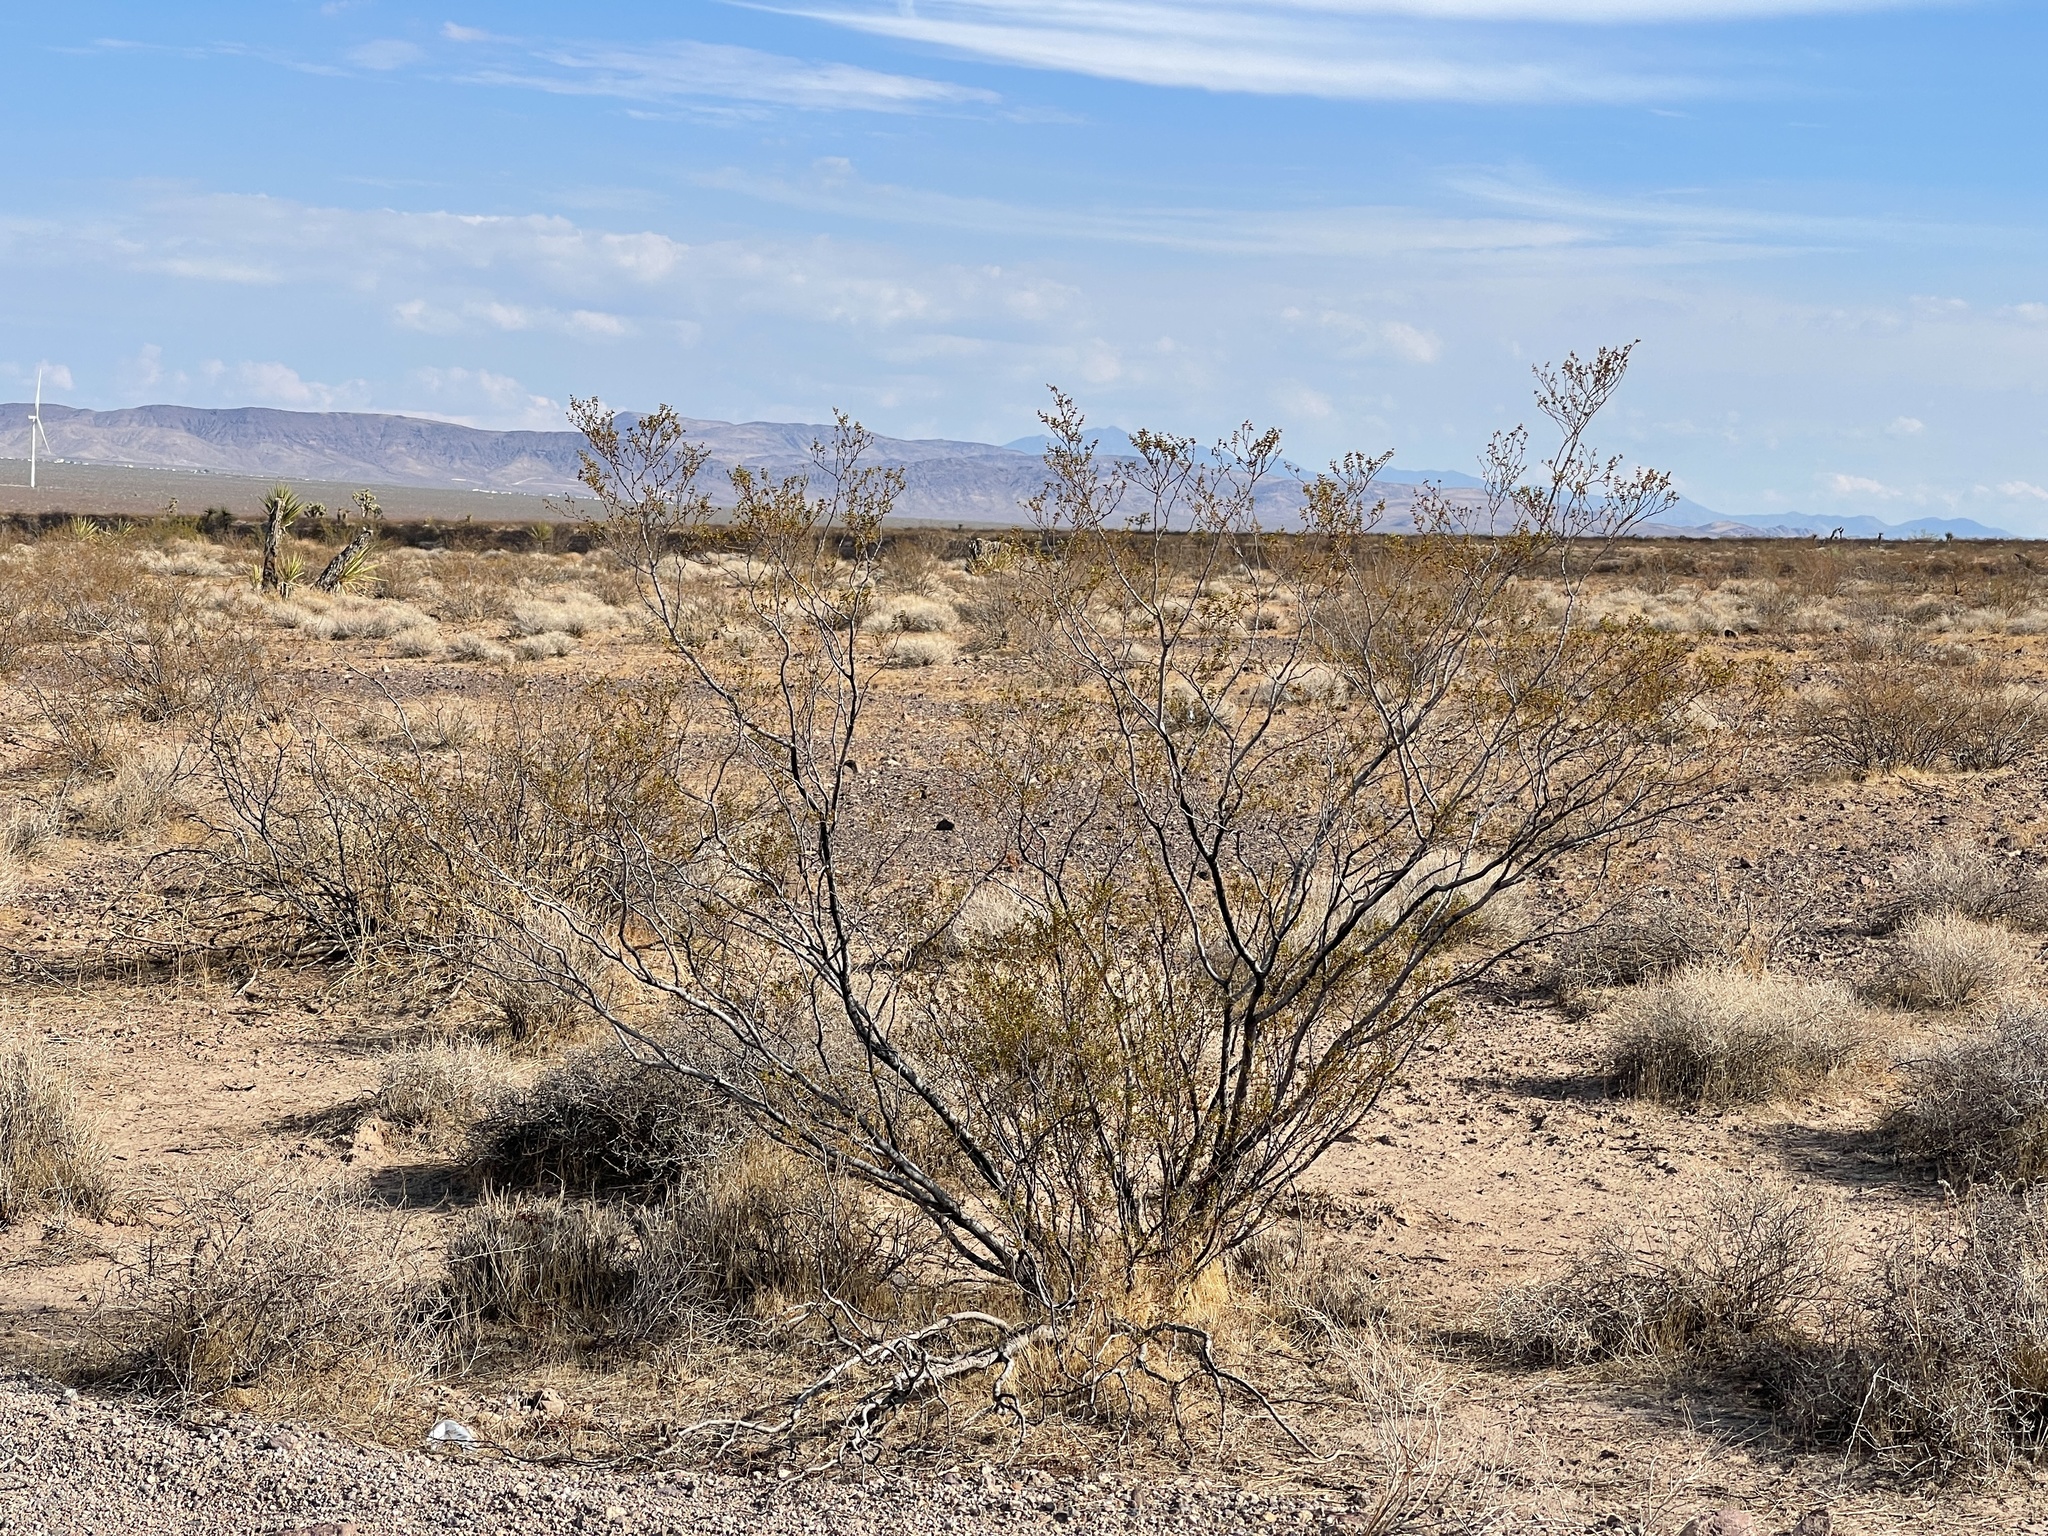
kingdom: Plantae
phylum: Tracheophyta
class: Magnoliopsida
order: Zygophyllales
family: Zygophyllaceae
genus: Larrea
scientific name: Larrea tridentata
